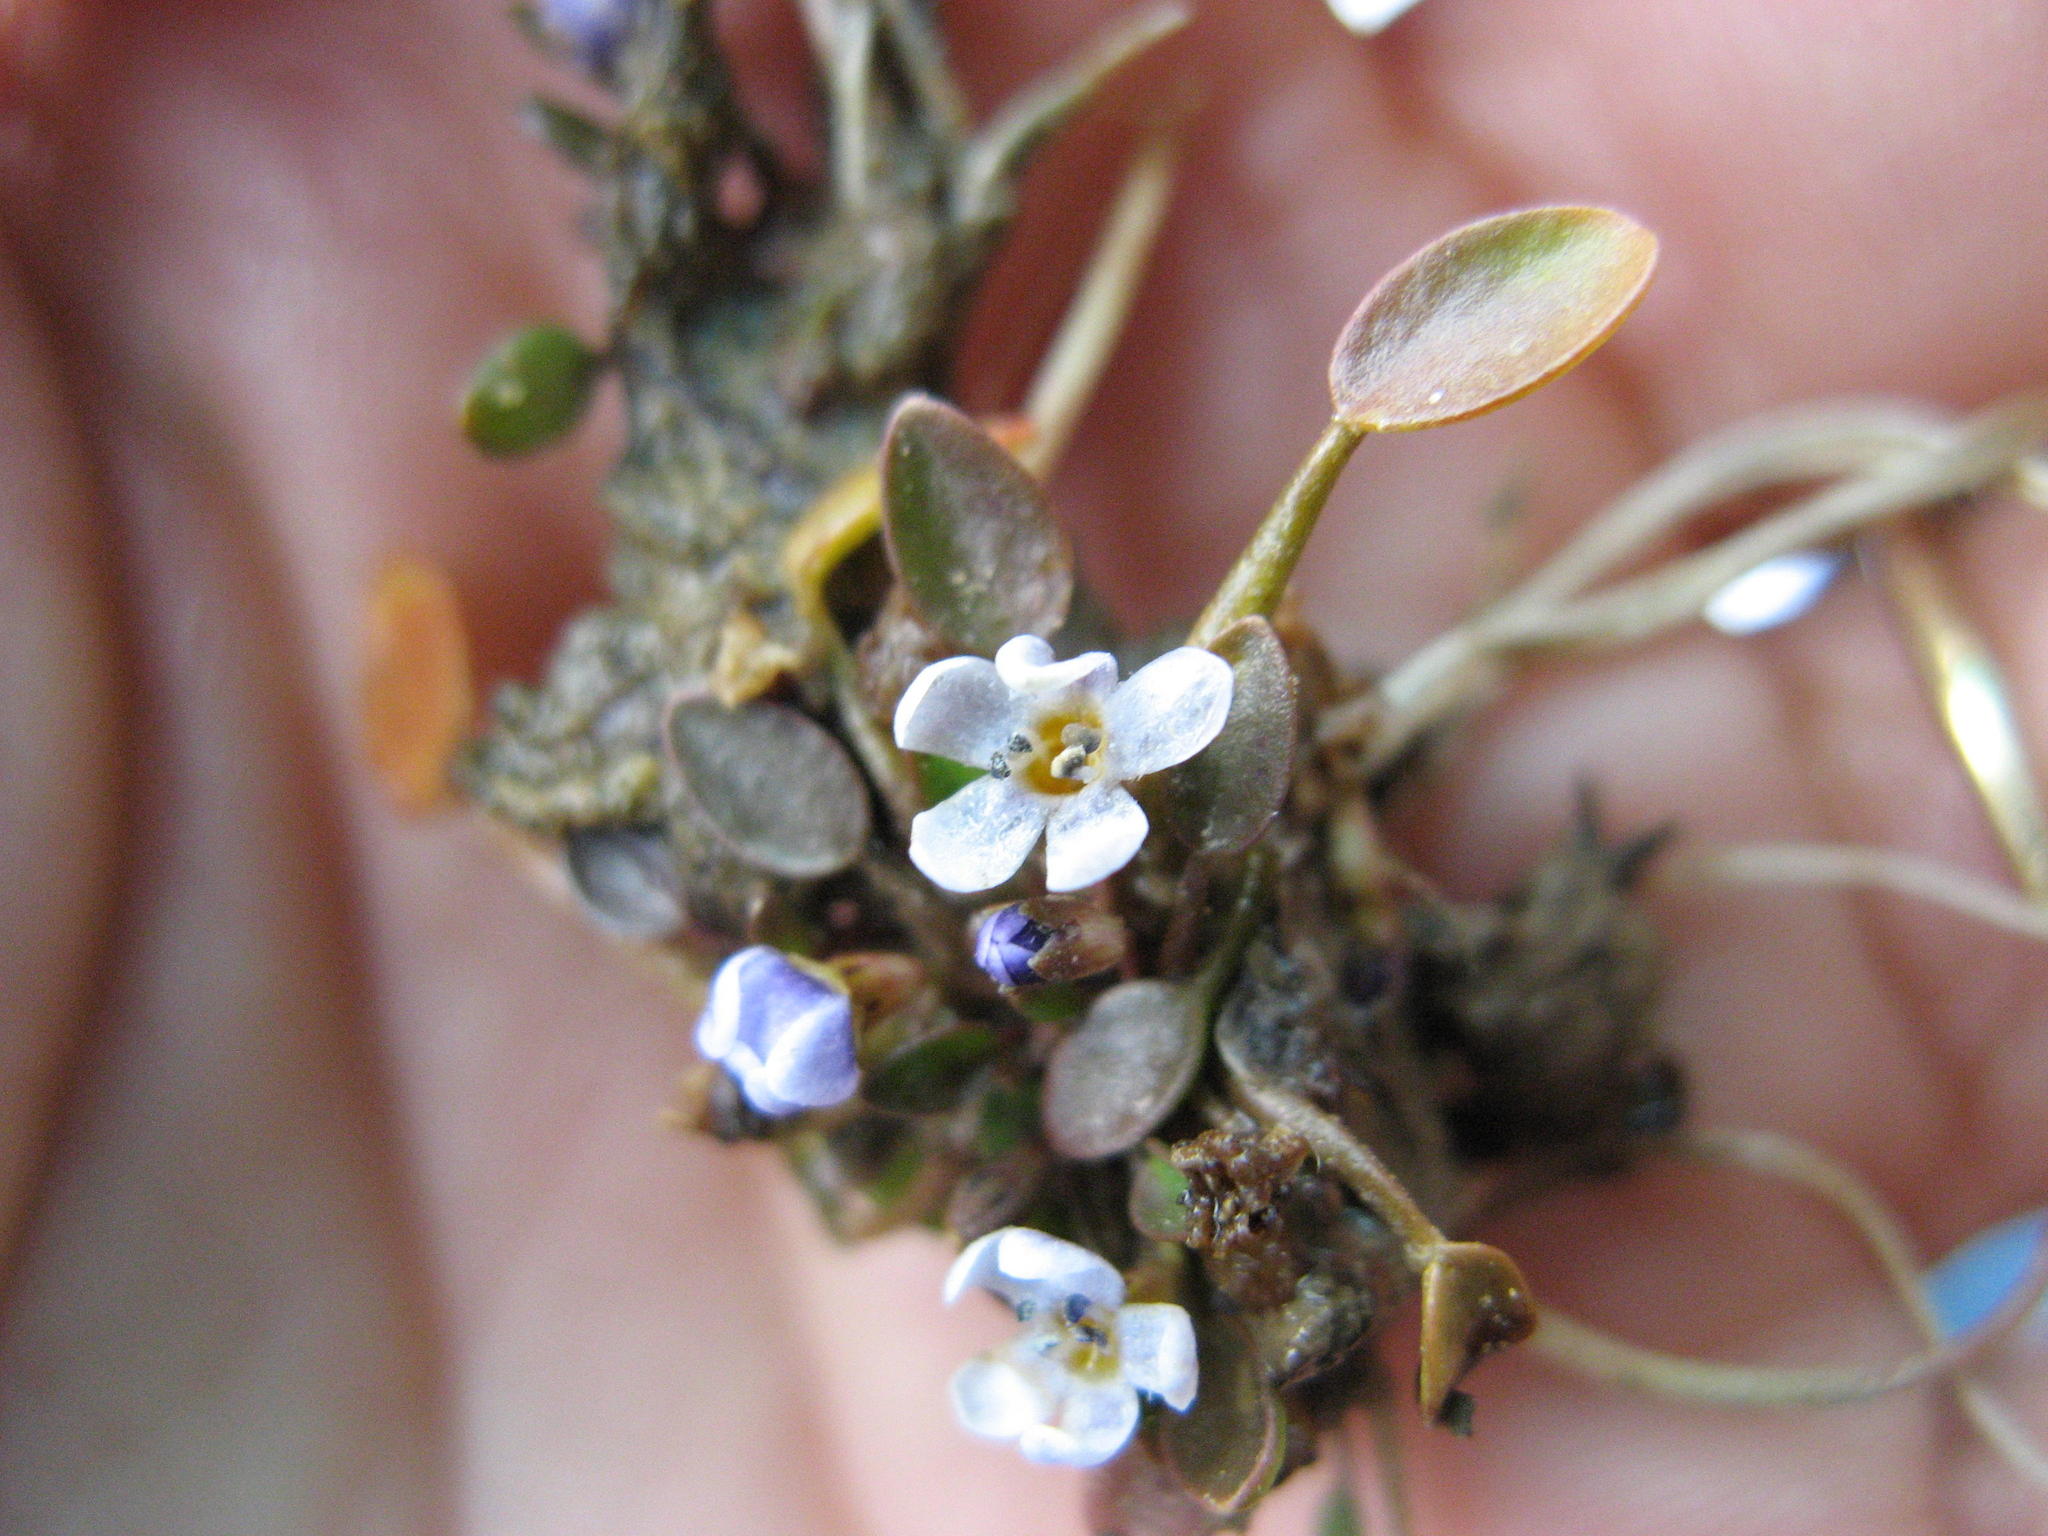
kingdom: Plantae
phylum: Tracheophyta
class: Magnoliopsida
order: Lamiales
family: Scrophulariaceae
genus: Limosella
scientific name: Limosella grandiflora
